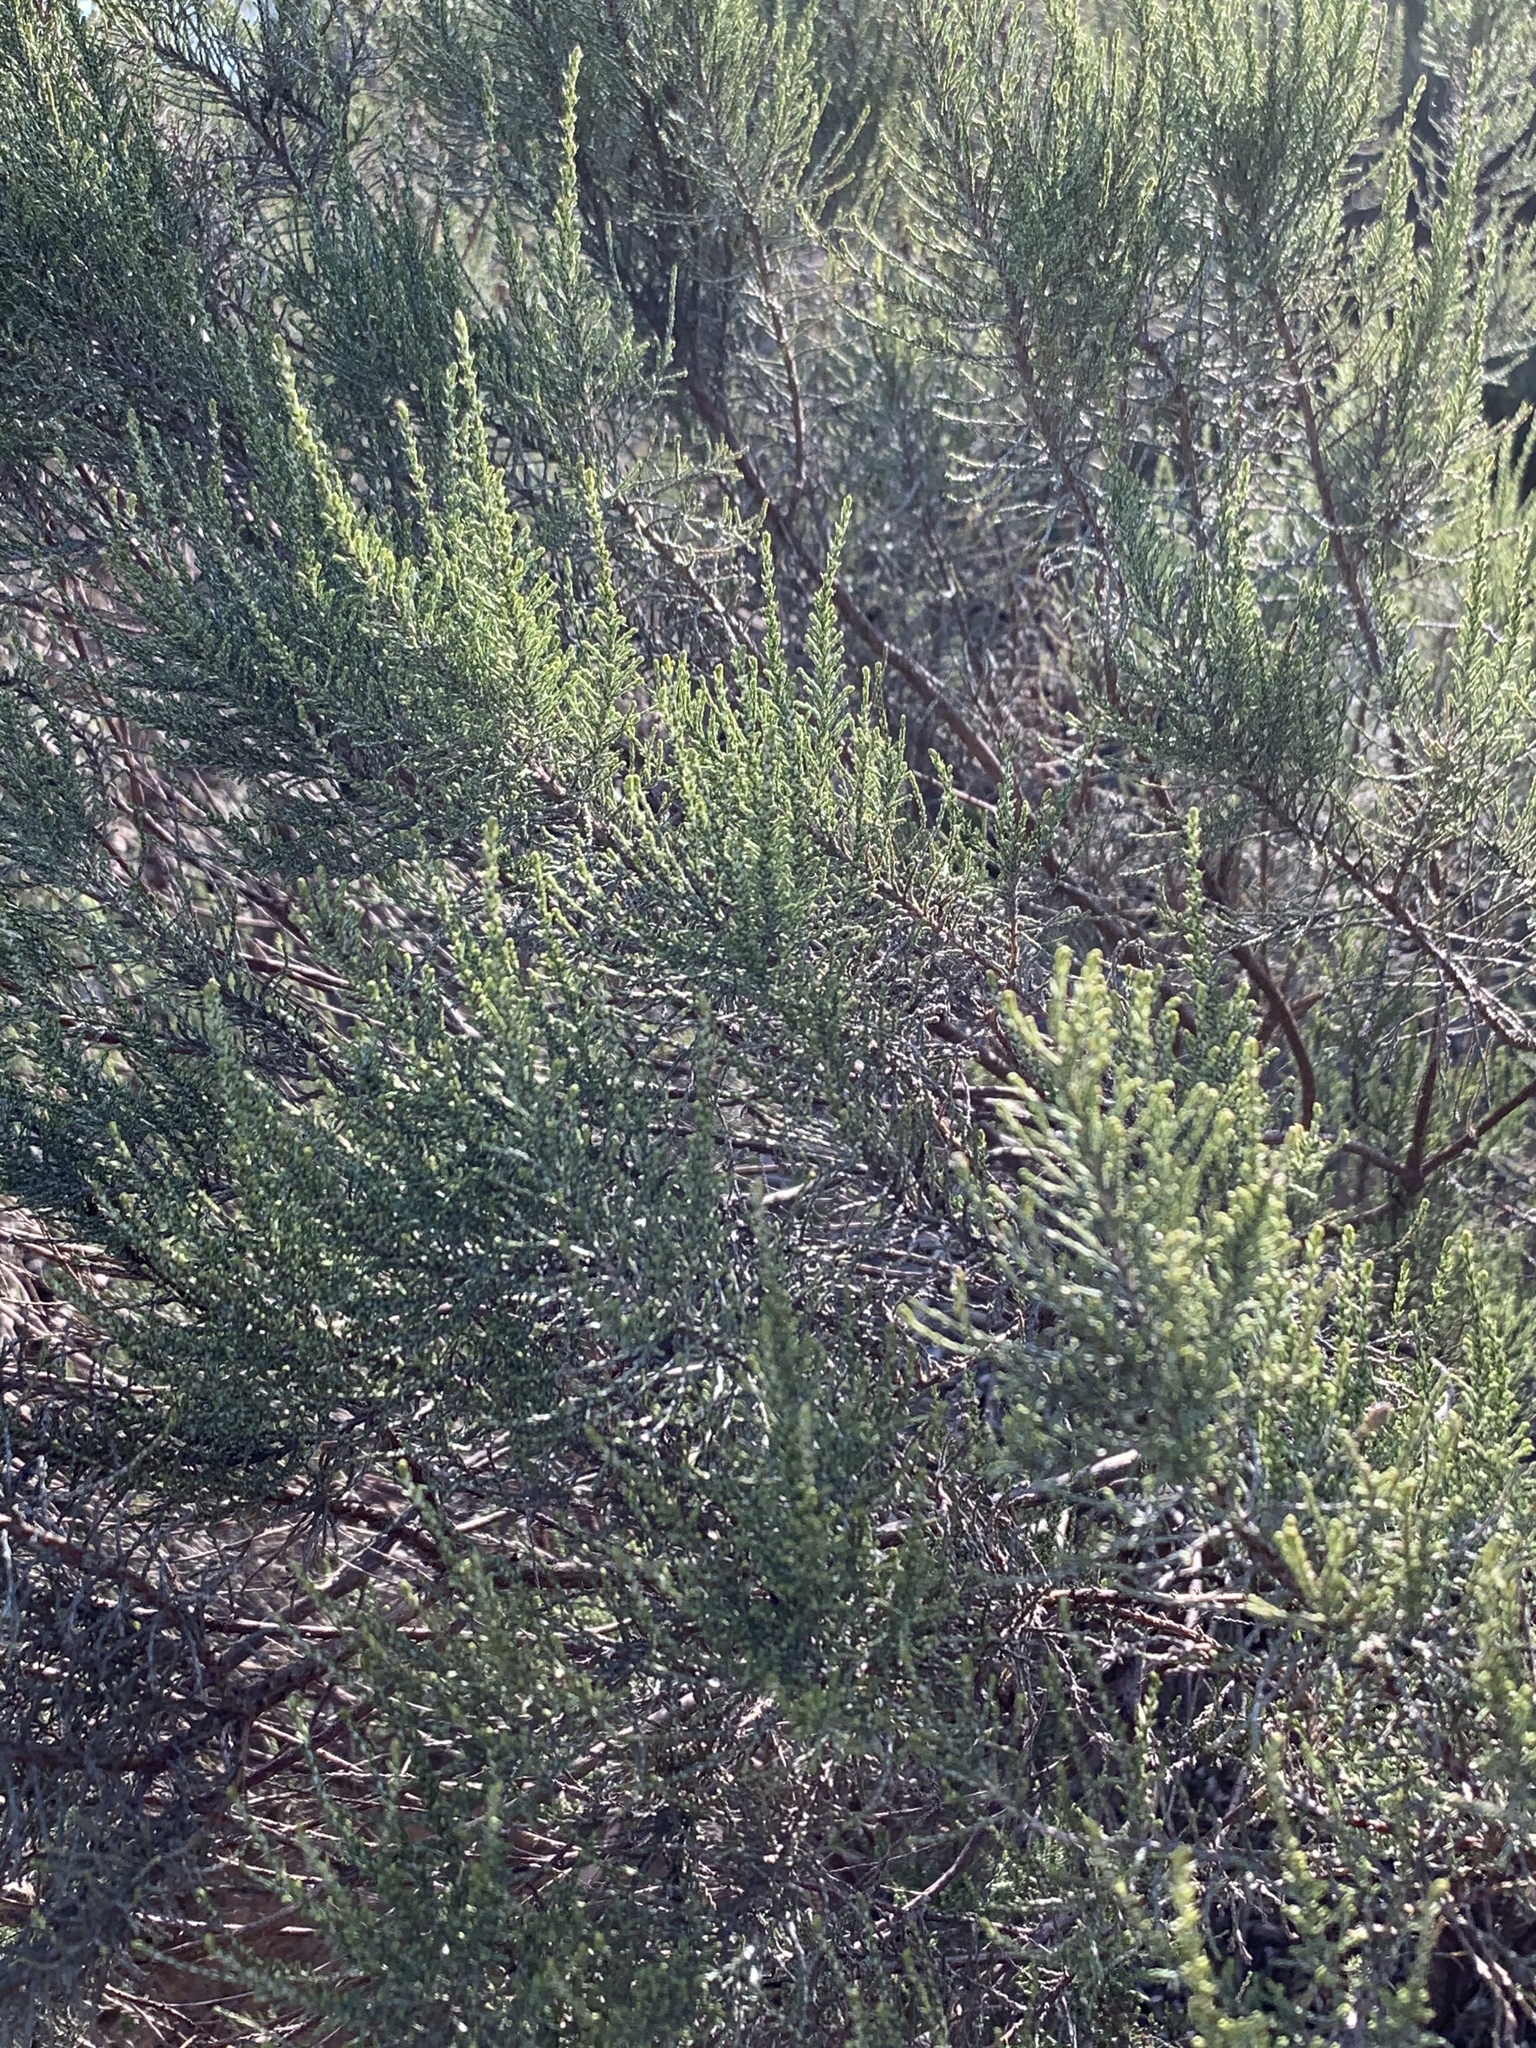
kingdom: Plantae
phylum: Tracheophyta
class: Magnoliopsida
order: Asterales
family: Asteraceae
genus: Dicerothamnus
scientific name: Dicerothamnus rhinocerotis
